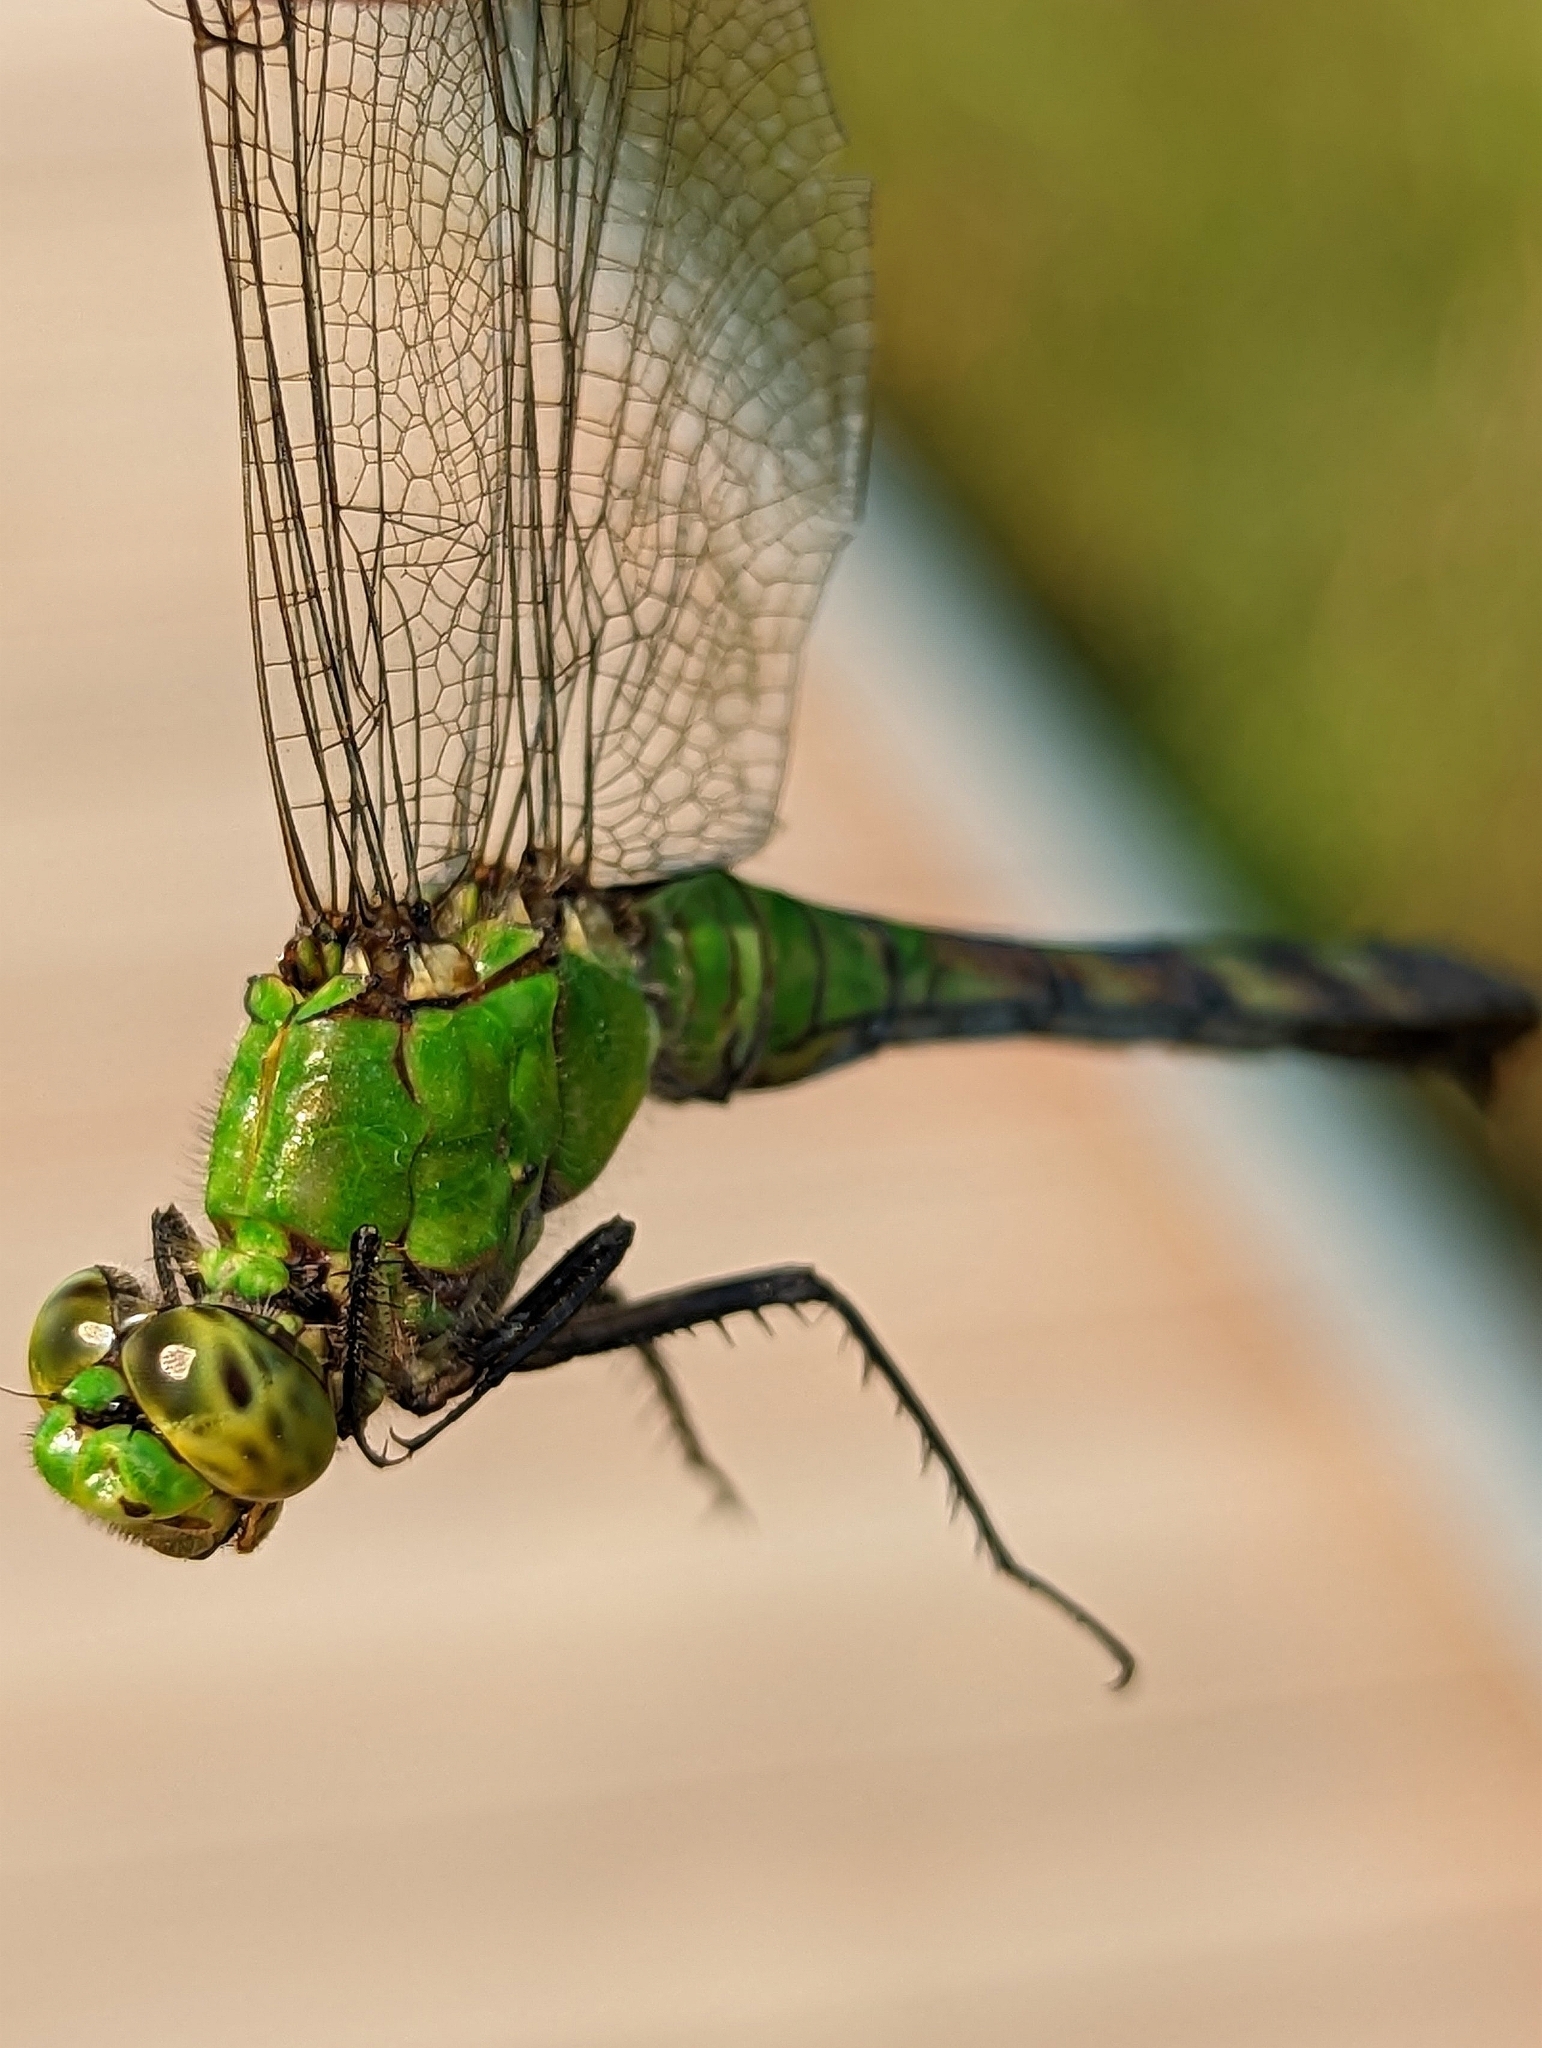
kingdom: Animalia
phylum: Arthropoda
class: Insecta
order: Odonata
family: Libellulidae
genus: Erythemis
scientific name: Erythemis simplicicollis
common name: Eastern pondhawk
